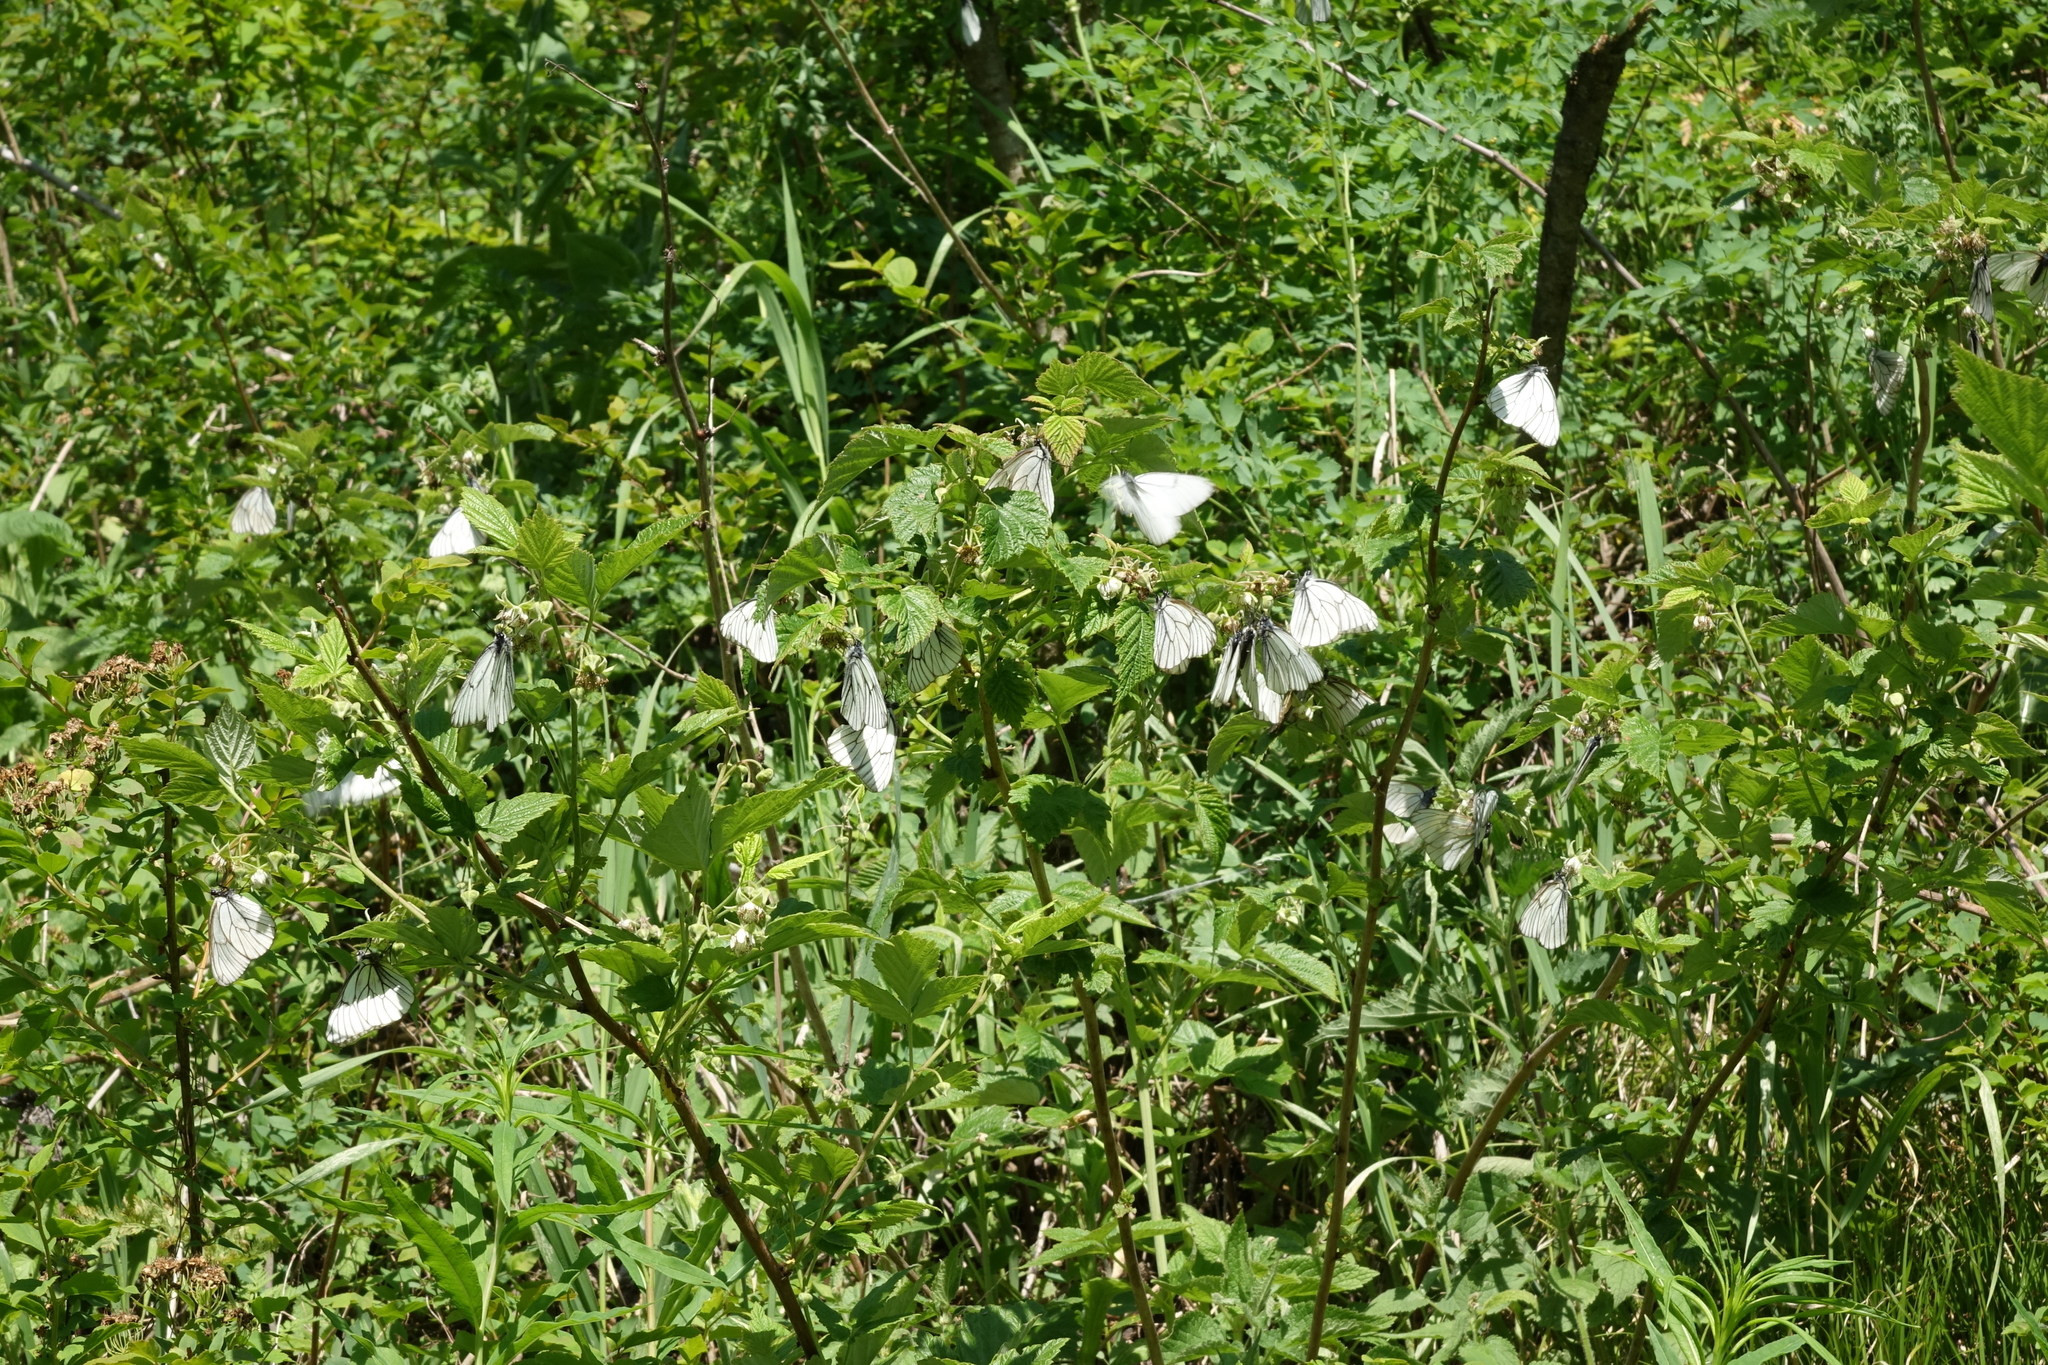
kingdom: Animalia
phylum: Arthropoda
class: Insecta
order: Lepidoptera
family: Pieridae
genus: Aporia
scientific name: Aporia crataegi
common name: Black-veined white
